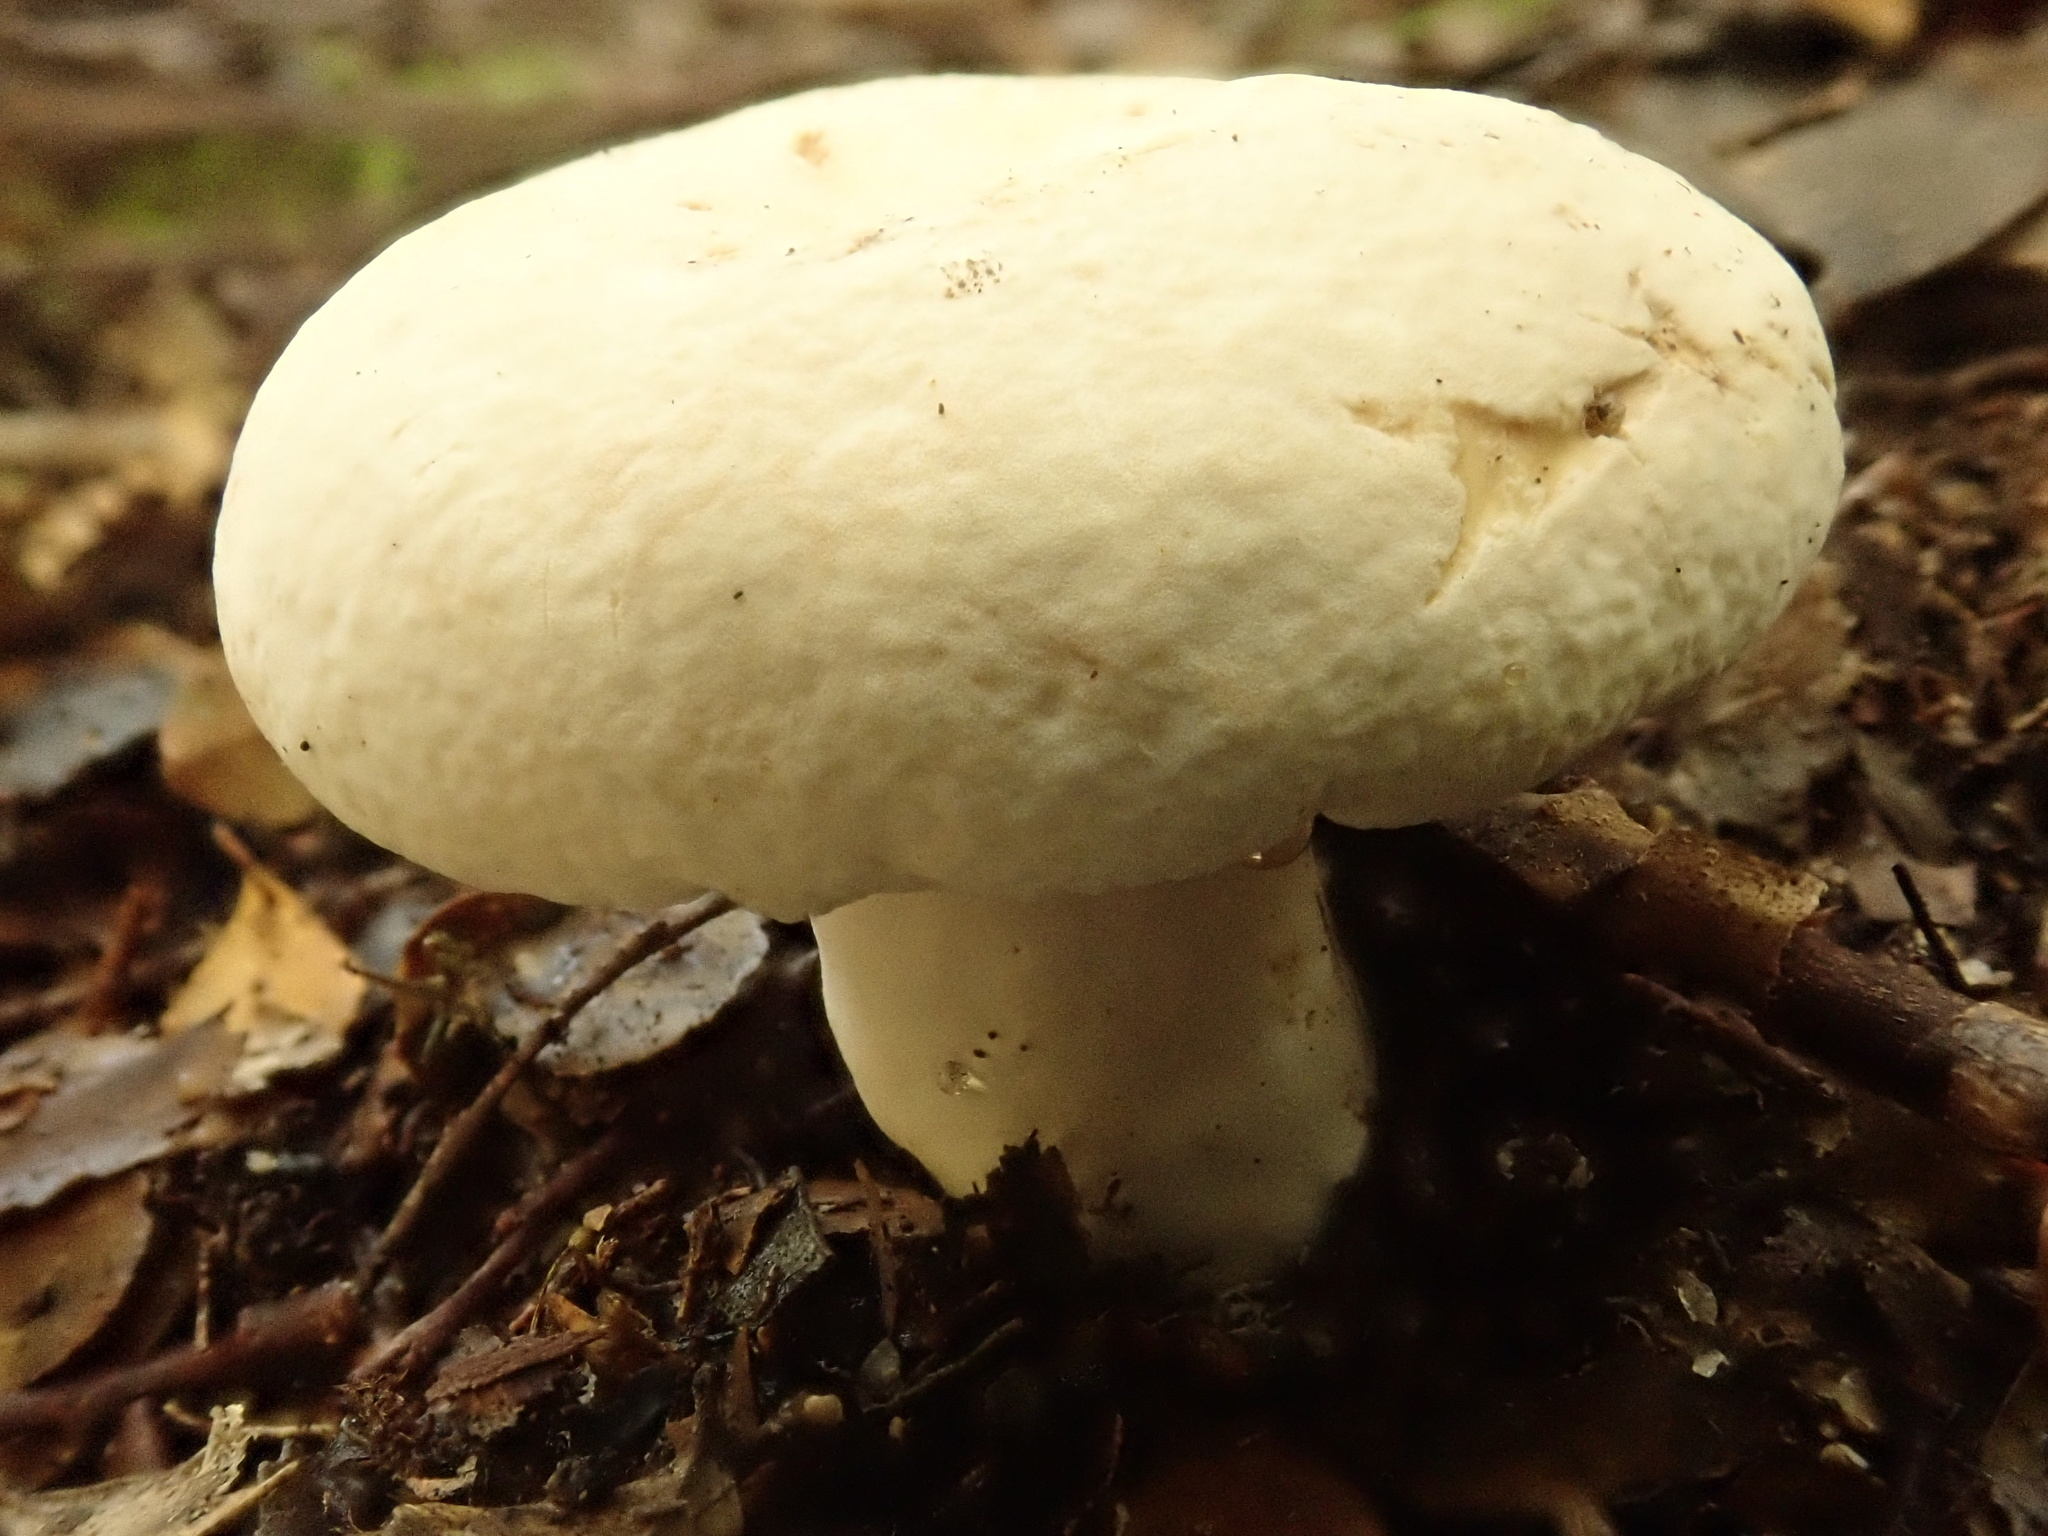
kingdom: Fungi
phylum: Basidiomycota
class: Agaricomycetes
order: Russulales
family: Russulaceae
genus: Lactifluus
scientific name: Lactifluus albopicrus
